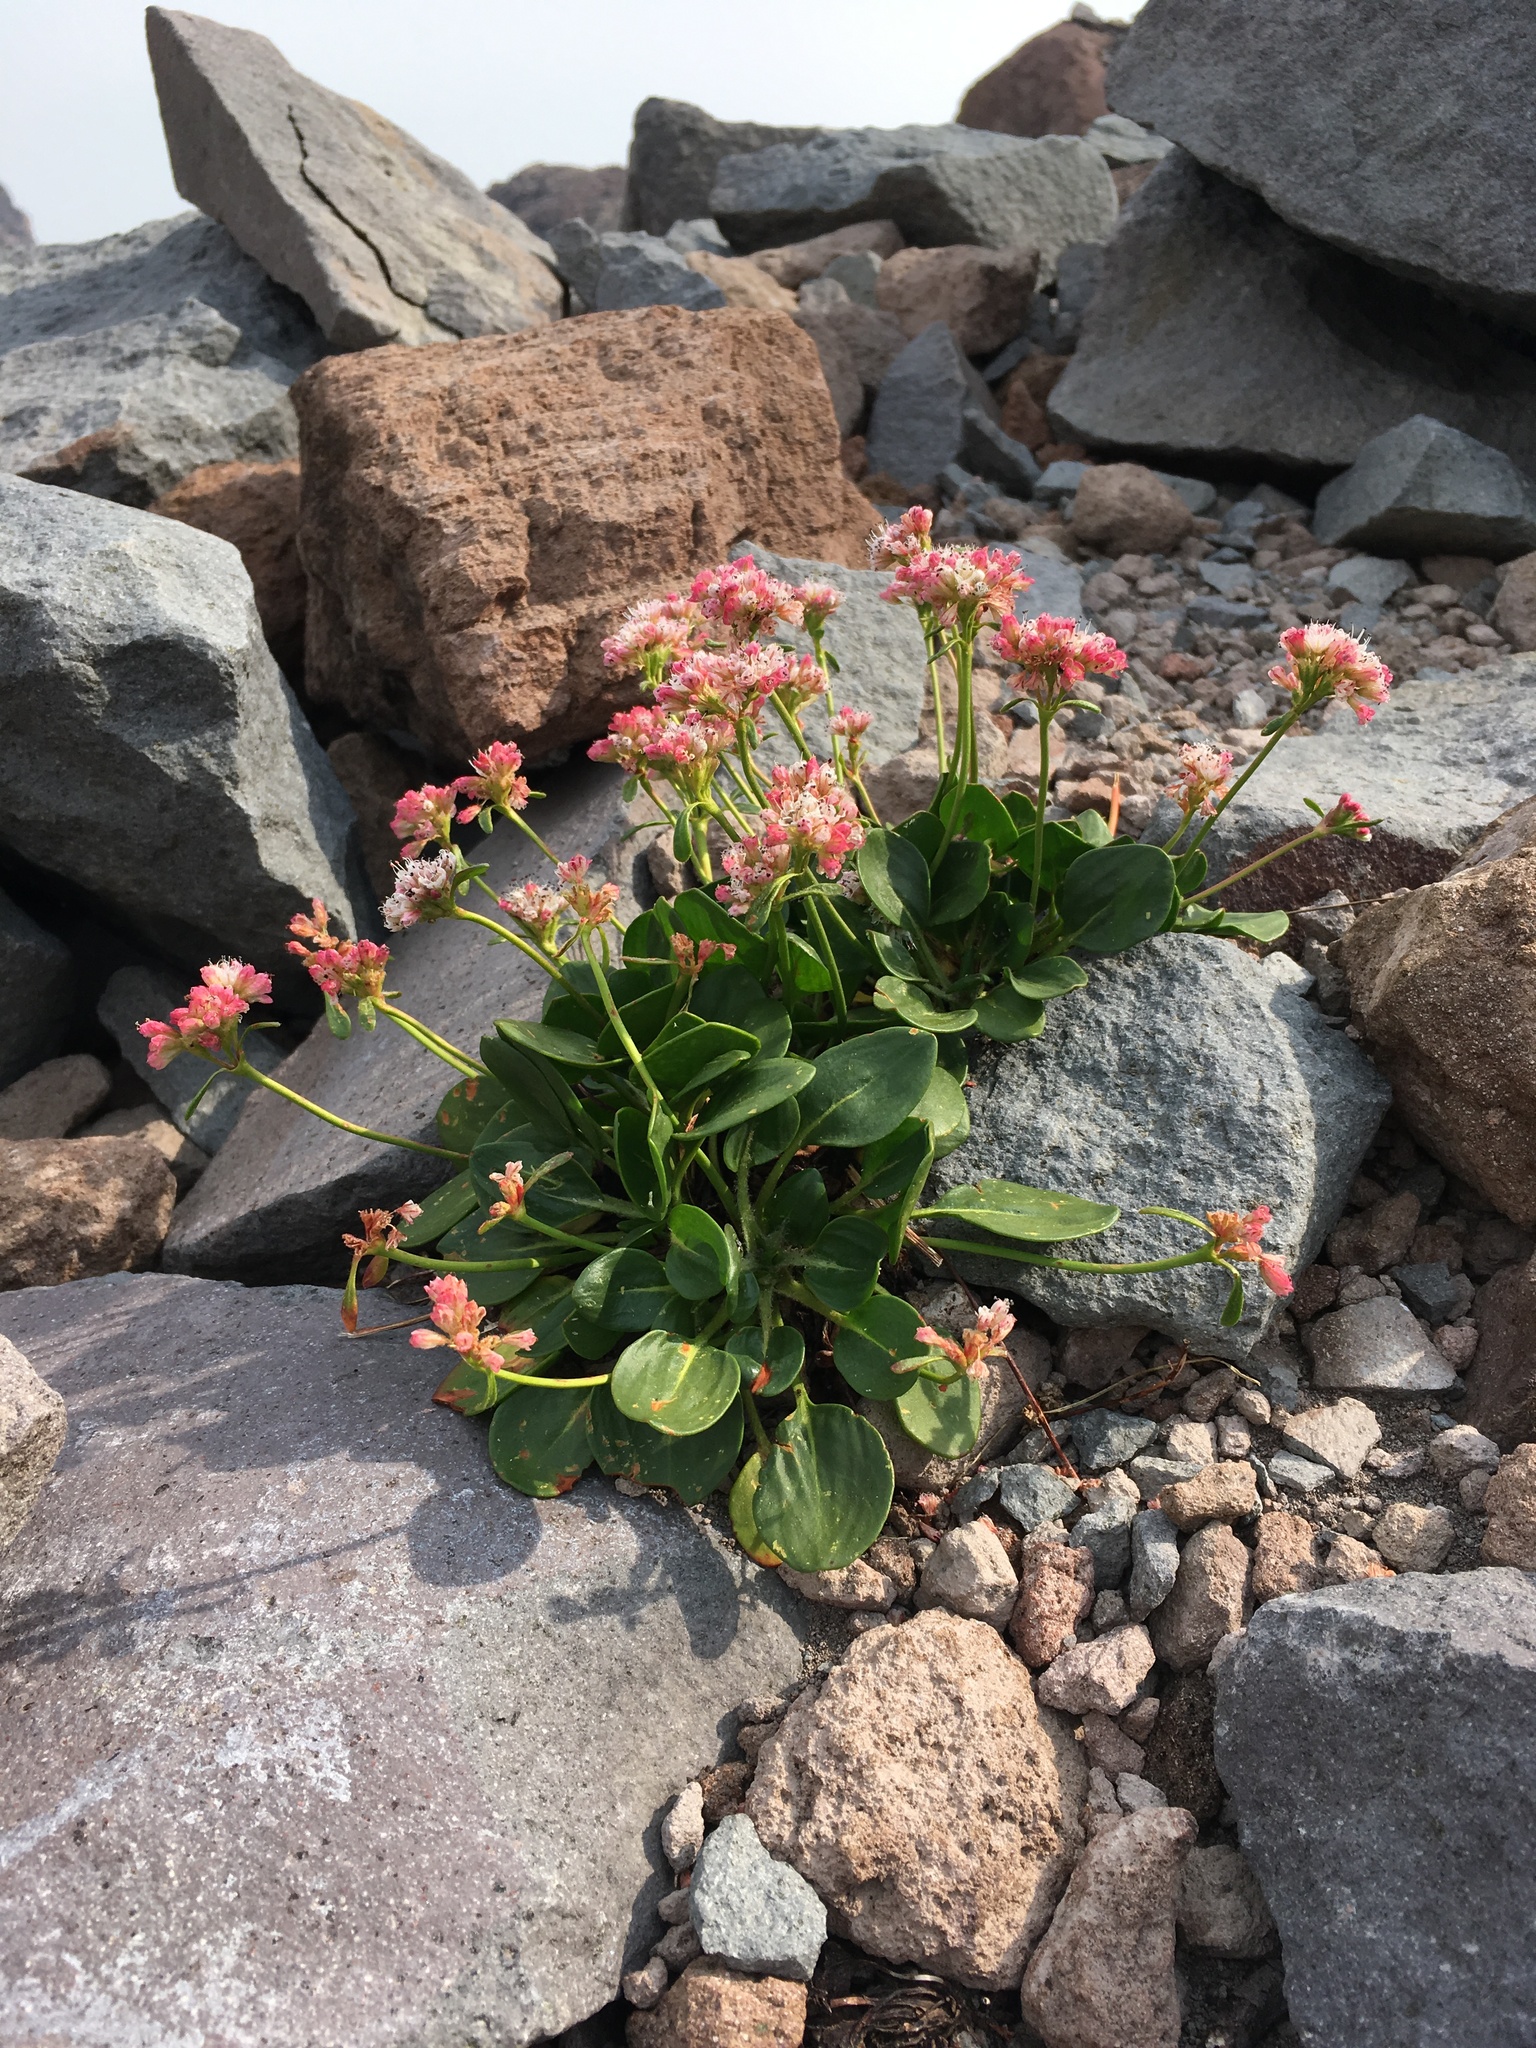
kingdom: Plantae
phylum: Tracheophyta
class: Magnoliopsida
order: Caryophyllales
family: Polygonaceae
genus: Eriogonum
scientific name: Eriogonum pyrolifolium
